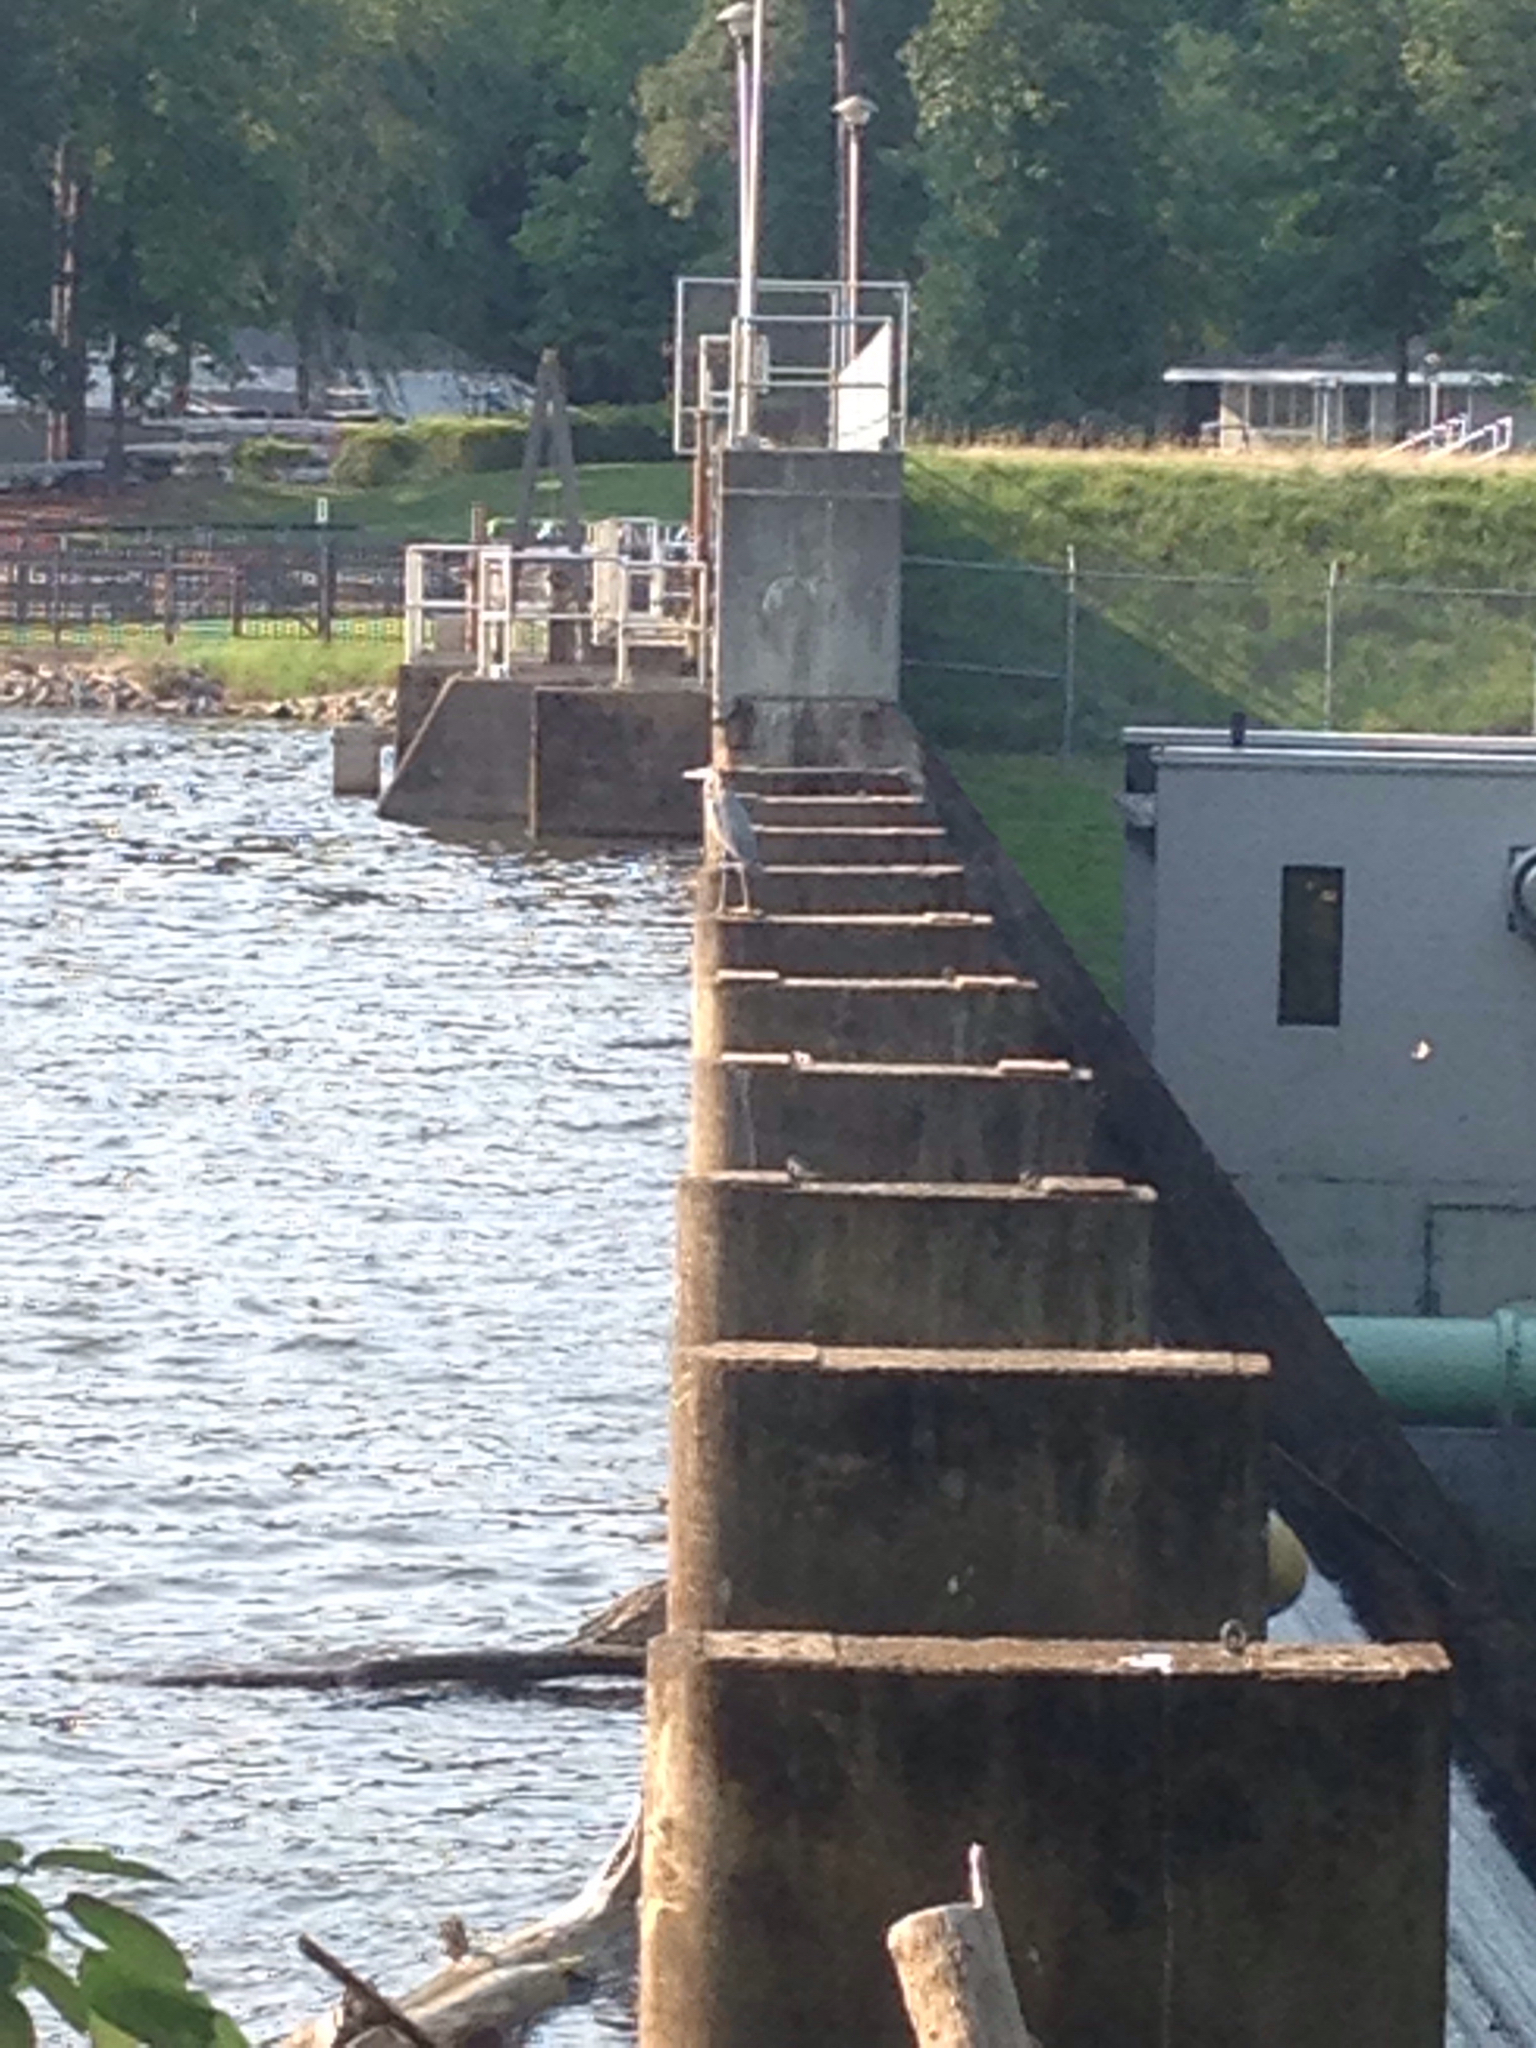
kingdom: Animalia
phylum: Chordata
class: Aves
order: Pelecaniformes
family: Ardeidae
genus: Ardea
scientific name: Ardea herodias
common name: Great blue heron
